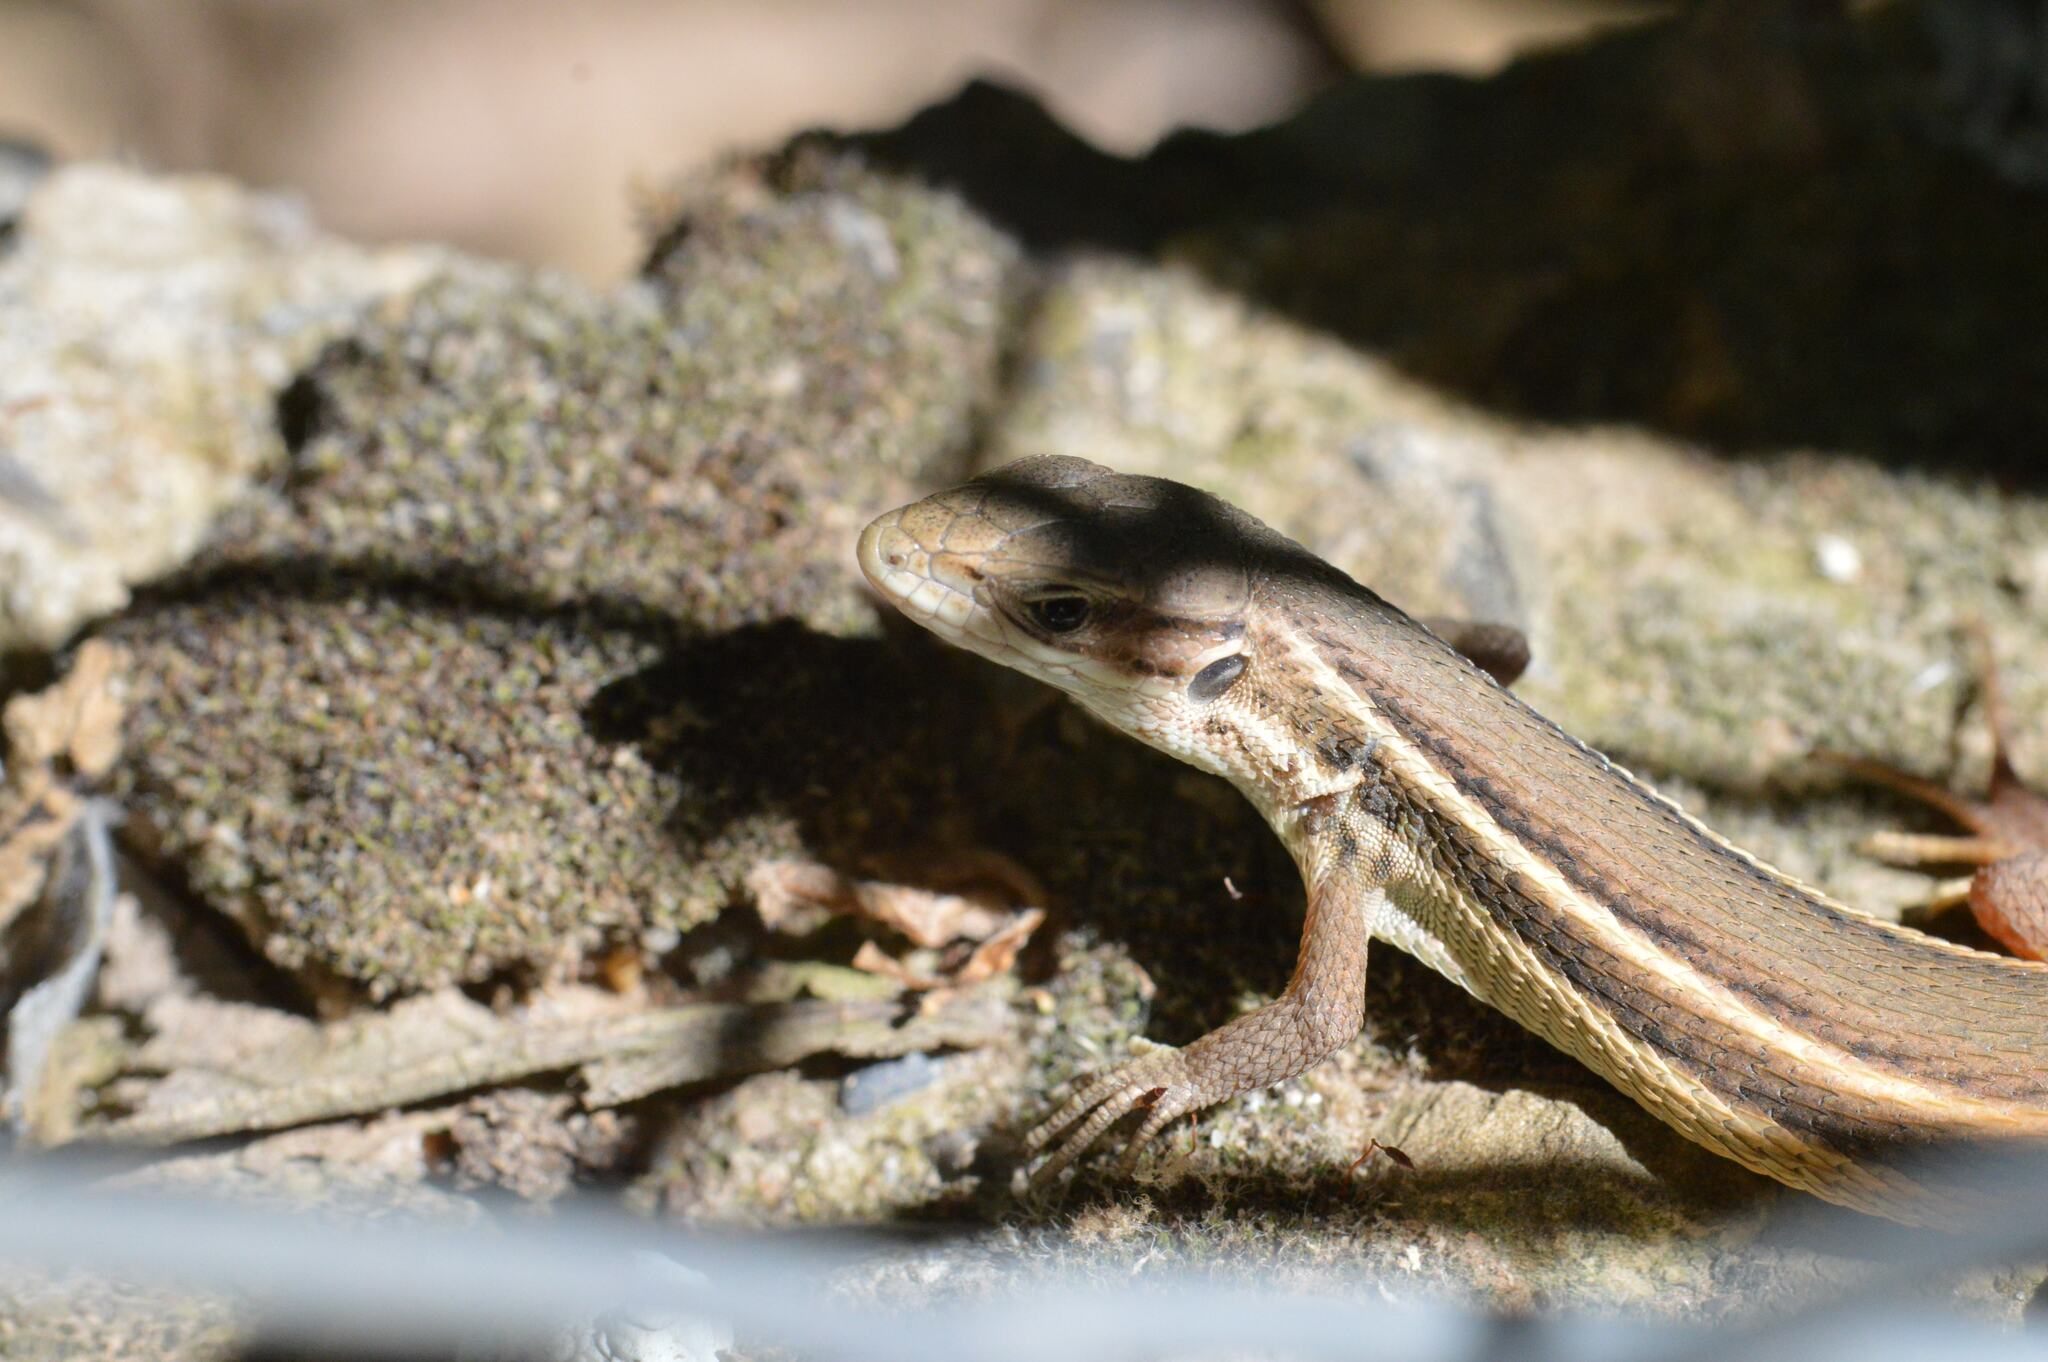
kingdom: Animalia
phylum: Chordata
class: Squamata
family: Lacertidae
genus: Psammodromus
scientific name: Psammodromus algirus
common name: Algerian psammodromus
